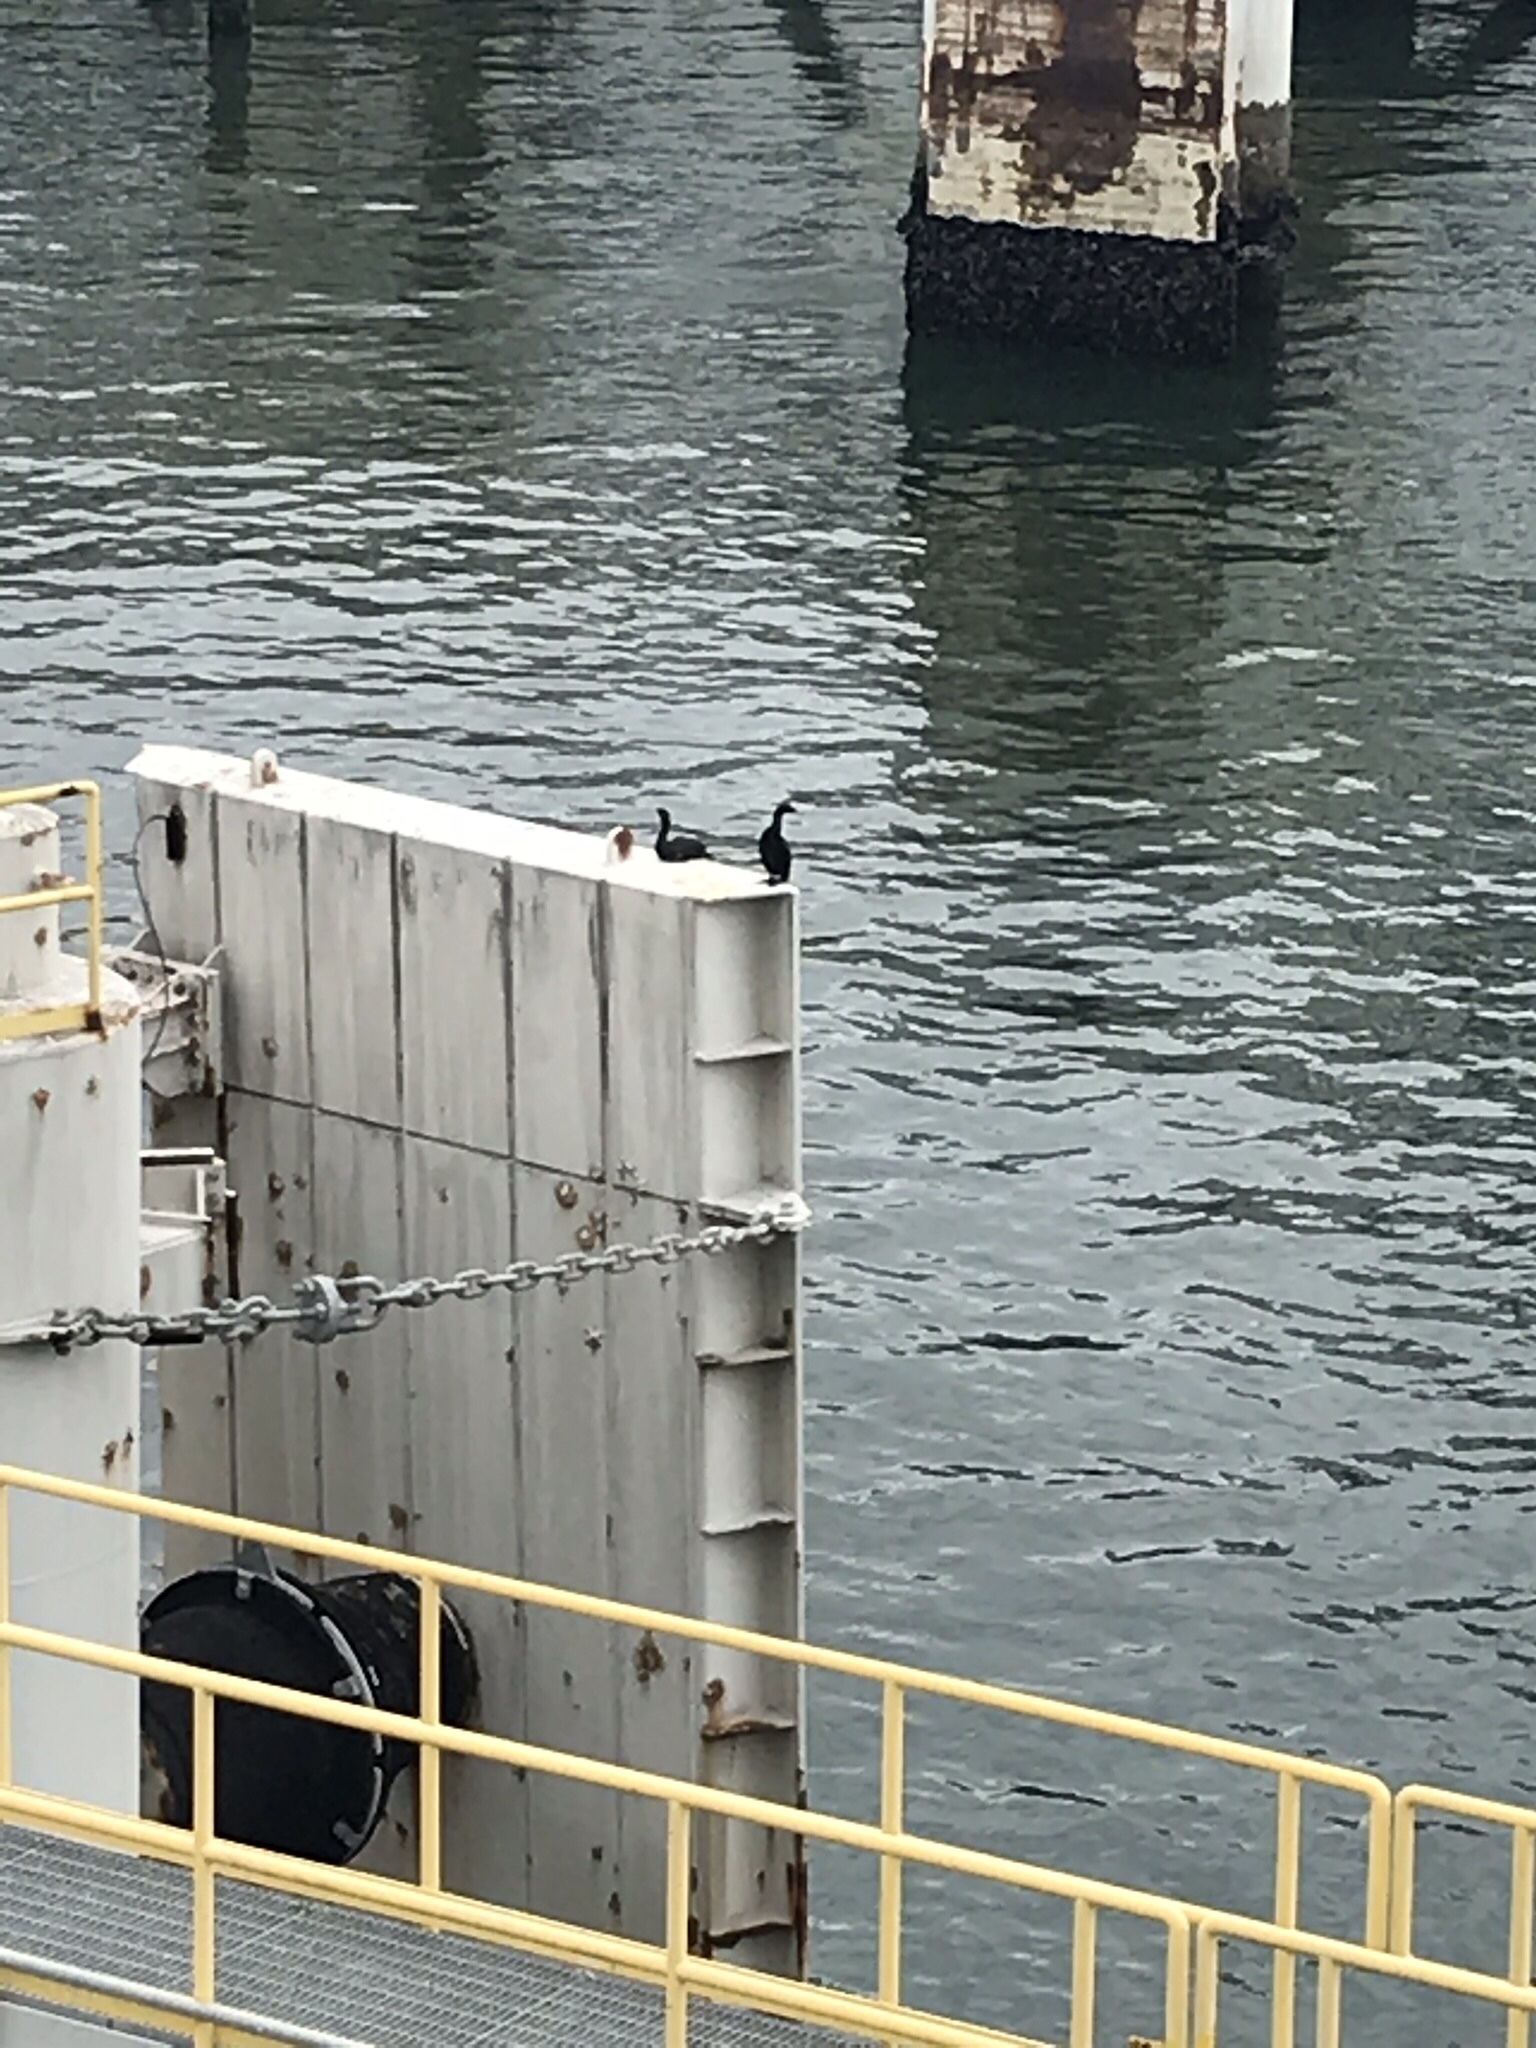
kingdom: Animalia
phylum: Chordata
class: Aves
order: Suliformes
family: Phalacrocoracidae
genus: Phalacrocorax
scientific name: Phalacrocorax pelagicus
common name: Pelagic cormorant
